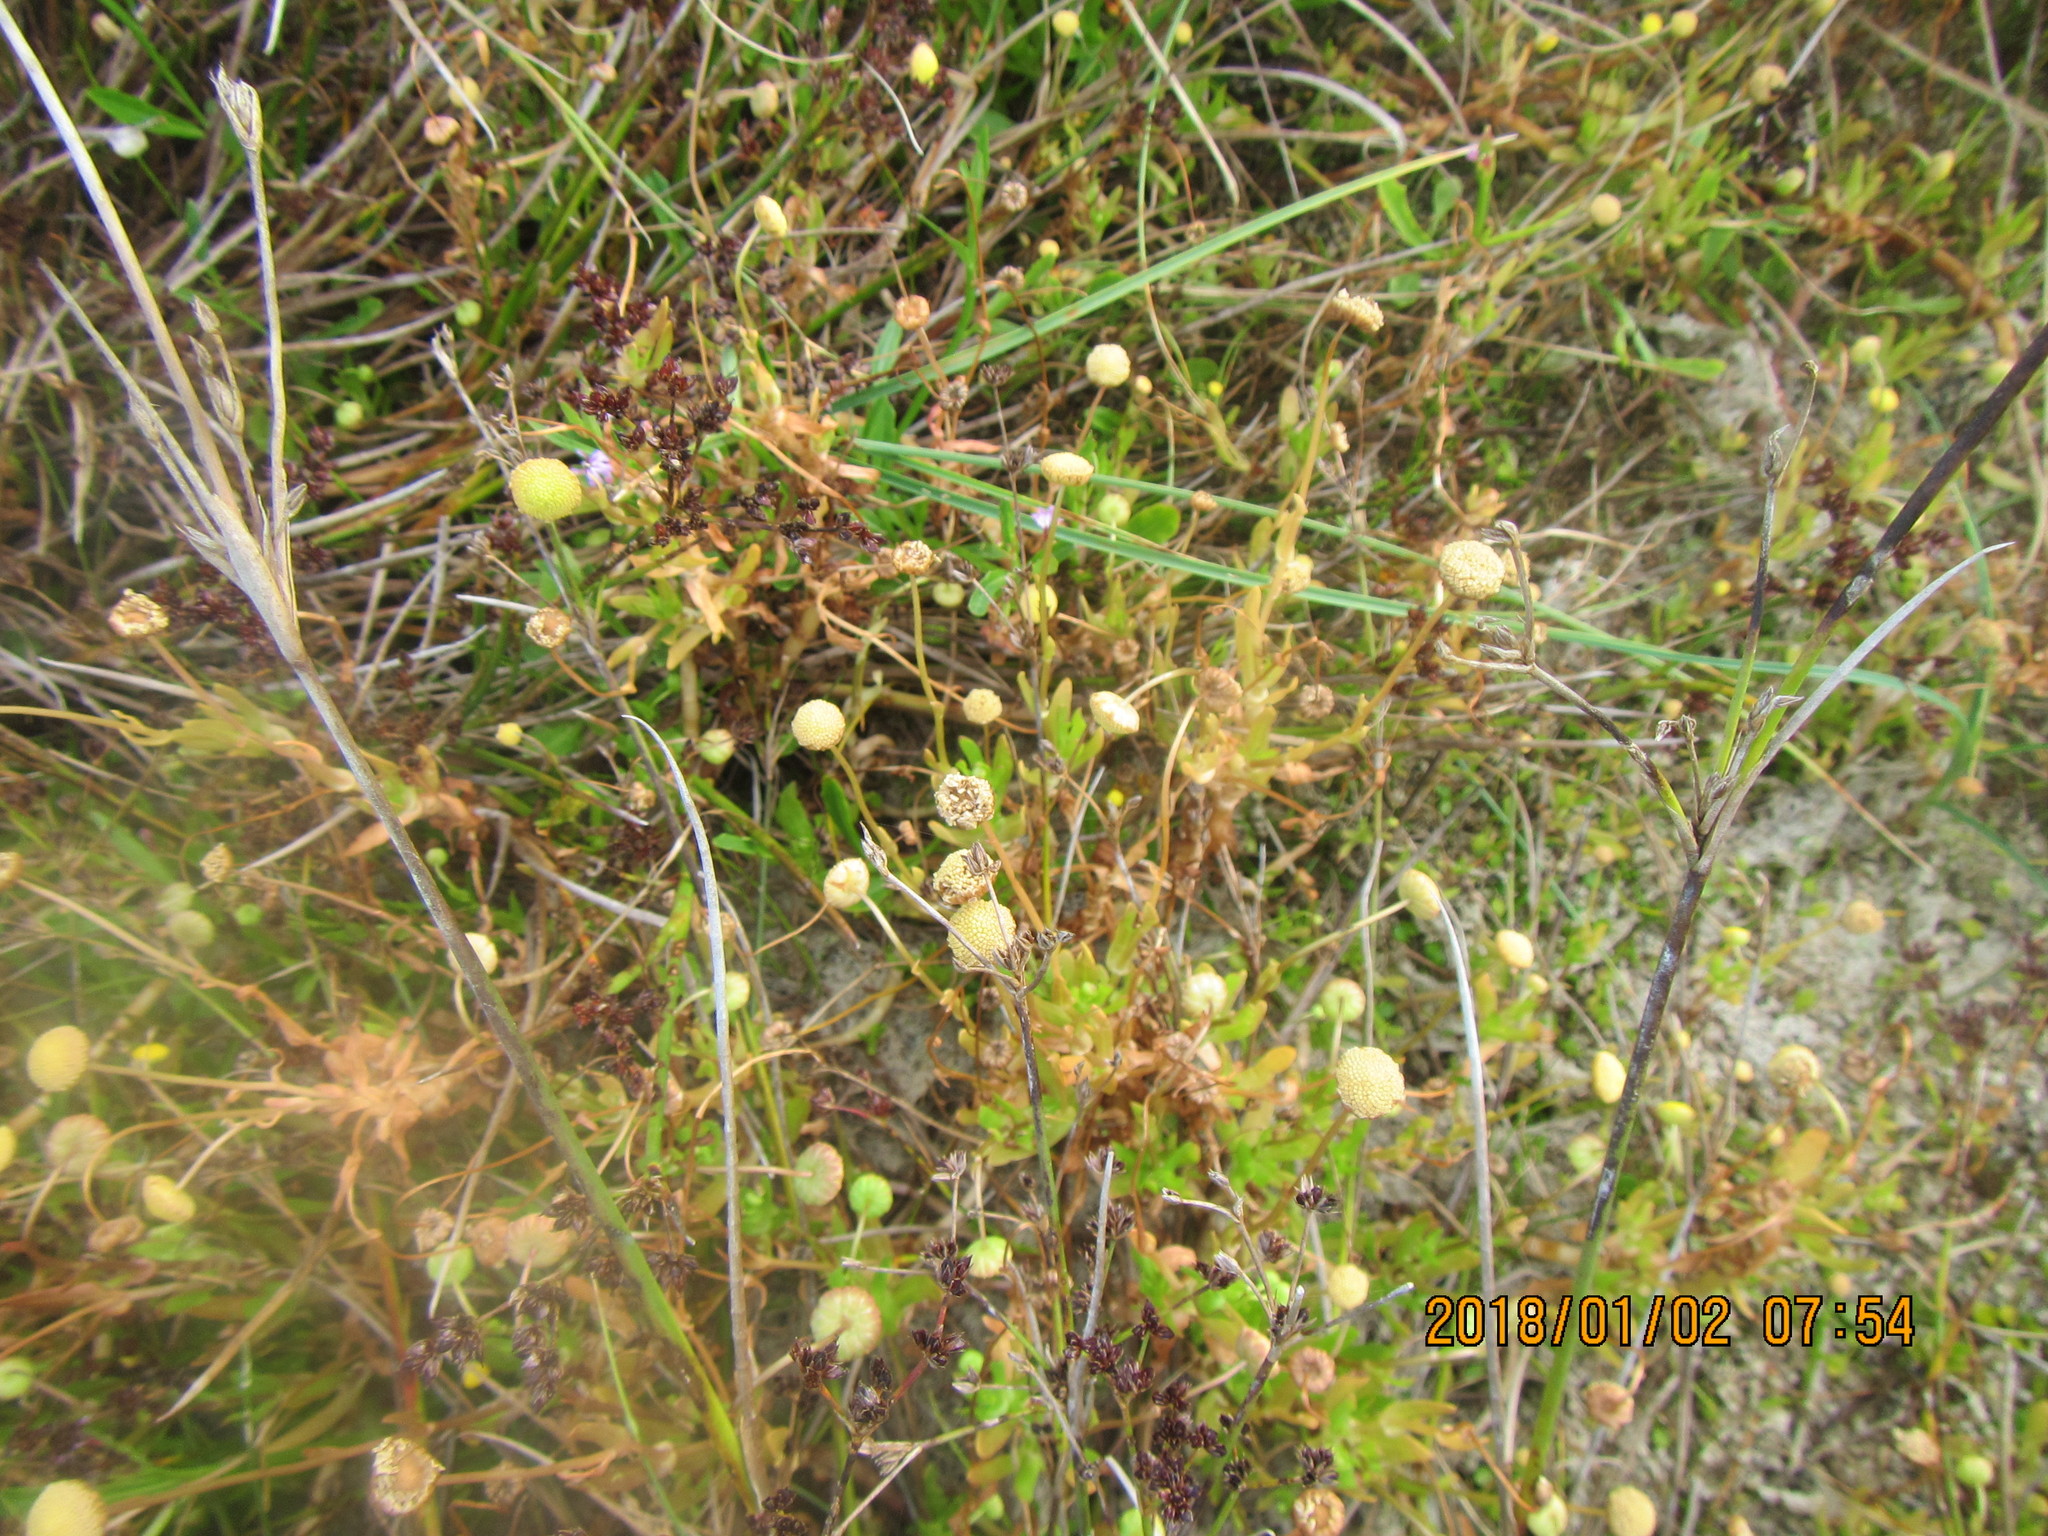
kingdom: Plantae
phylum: Tracheophyta
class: Magnoliopsida
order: Asterales
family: Asteraceae
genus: Cotula
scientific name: Cotula coronopifolia
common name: Buttonweed
